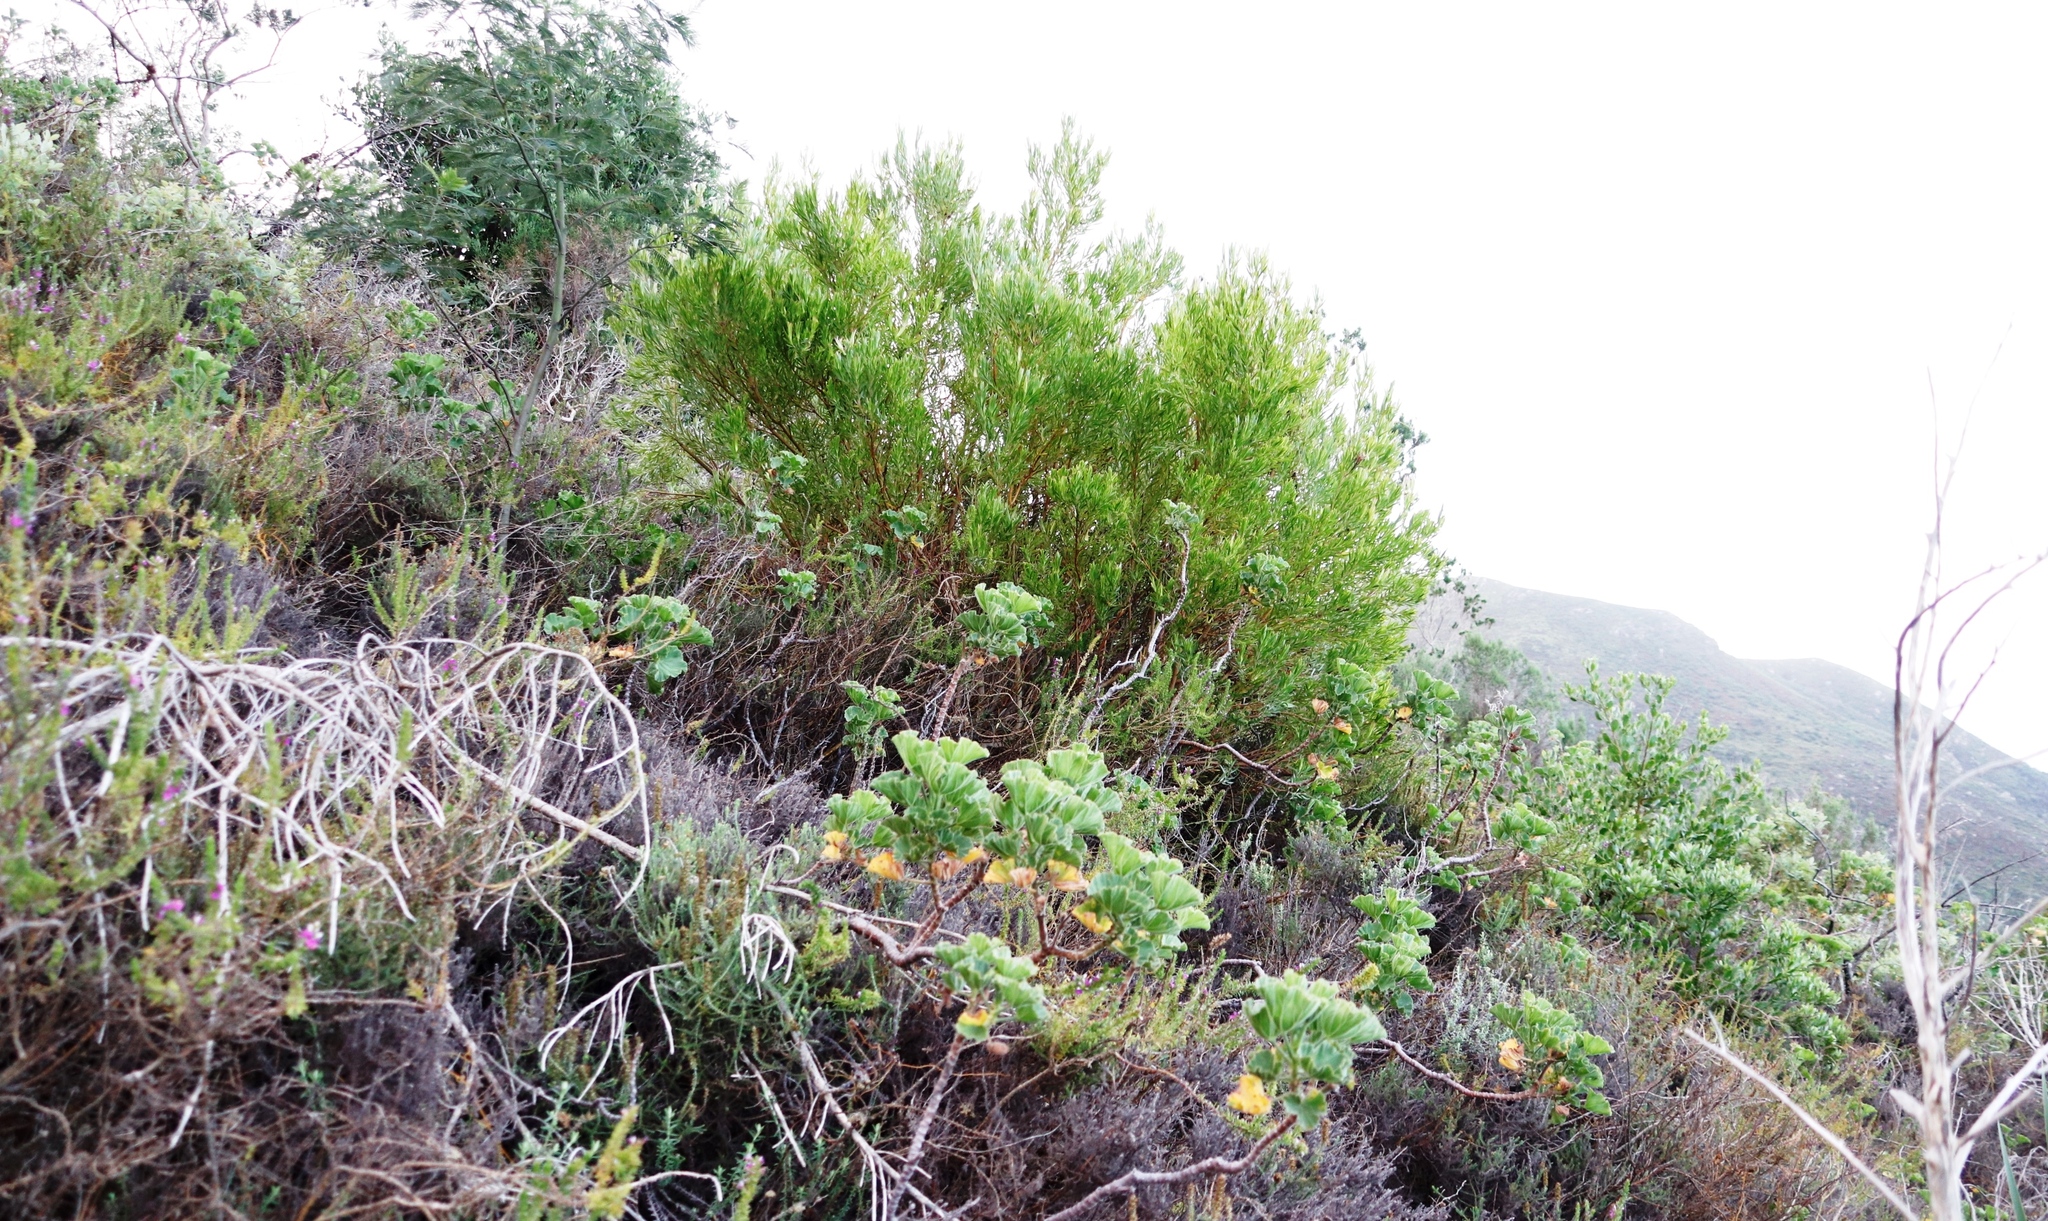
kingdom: Plantae
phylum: Tracheophyta
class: Magnoliopsida
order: Fabales
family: Fabaceae
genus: Acacia
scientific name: Acacia cyclops
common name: Coastal wattle
